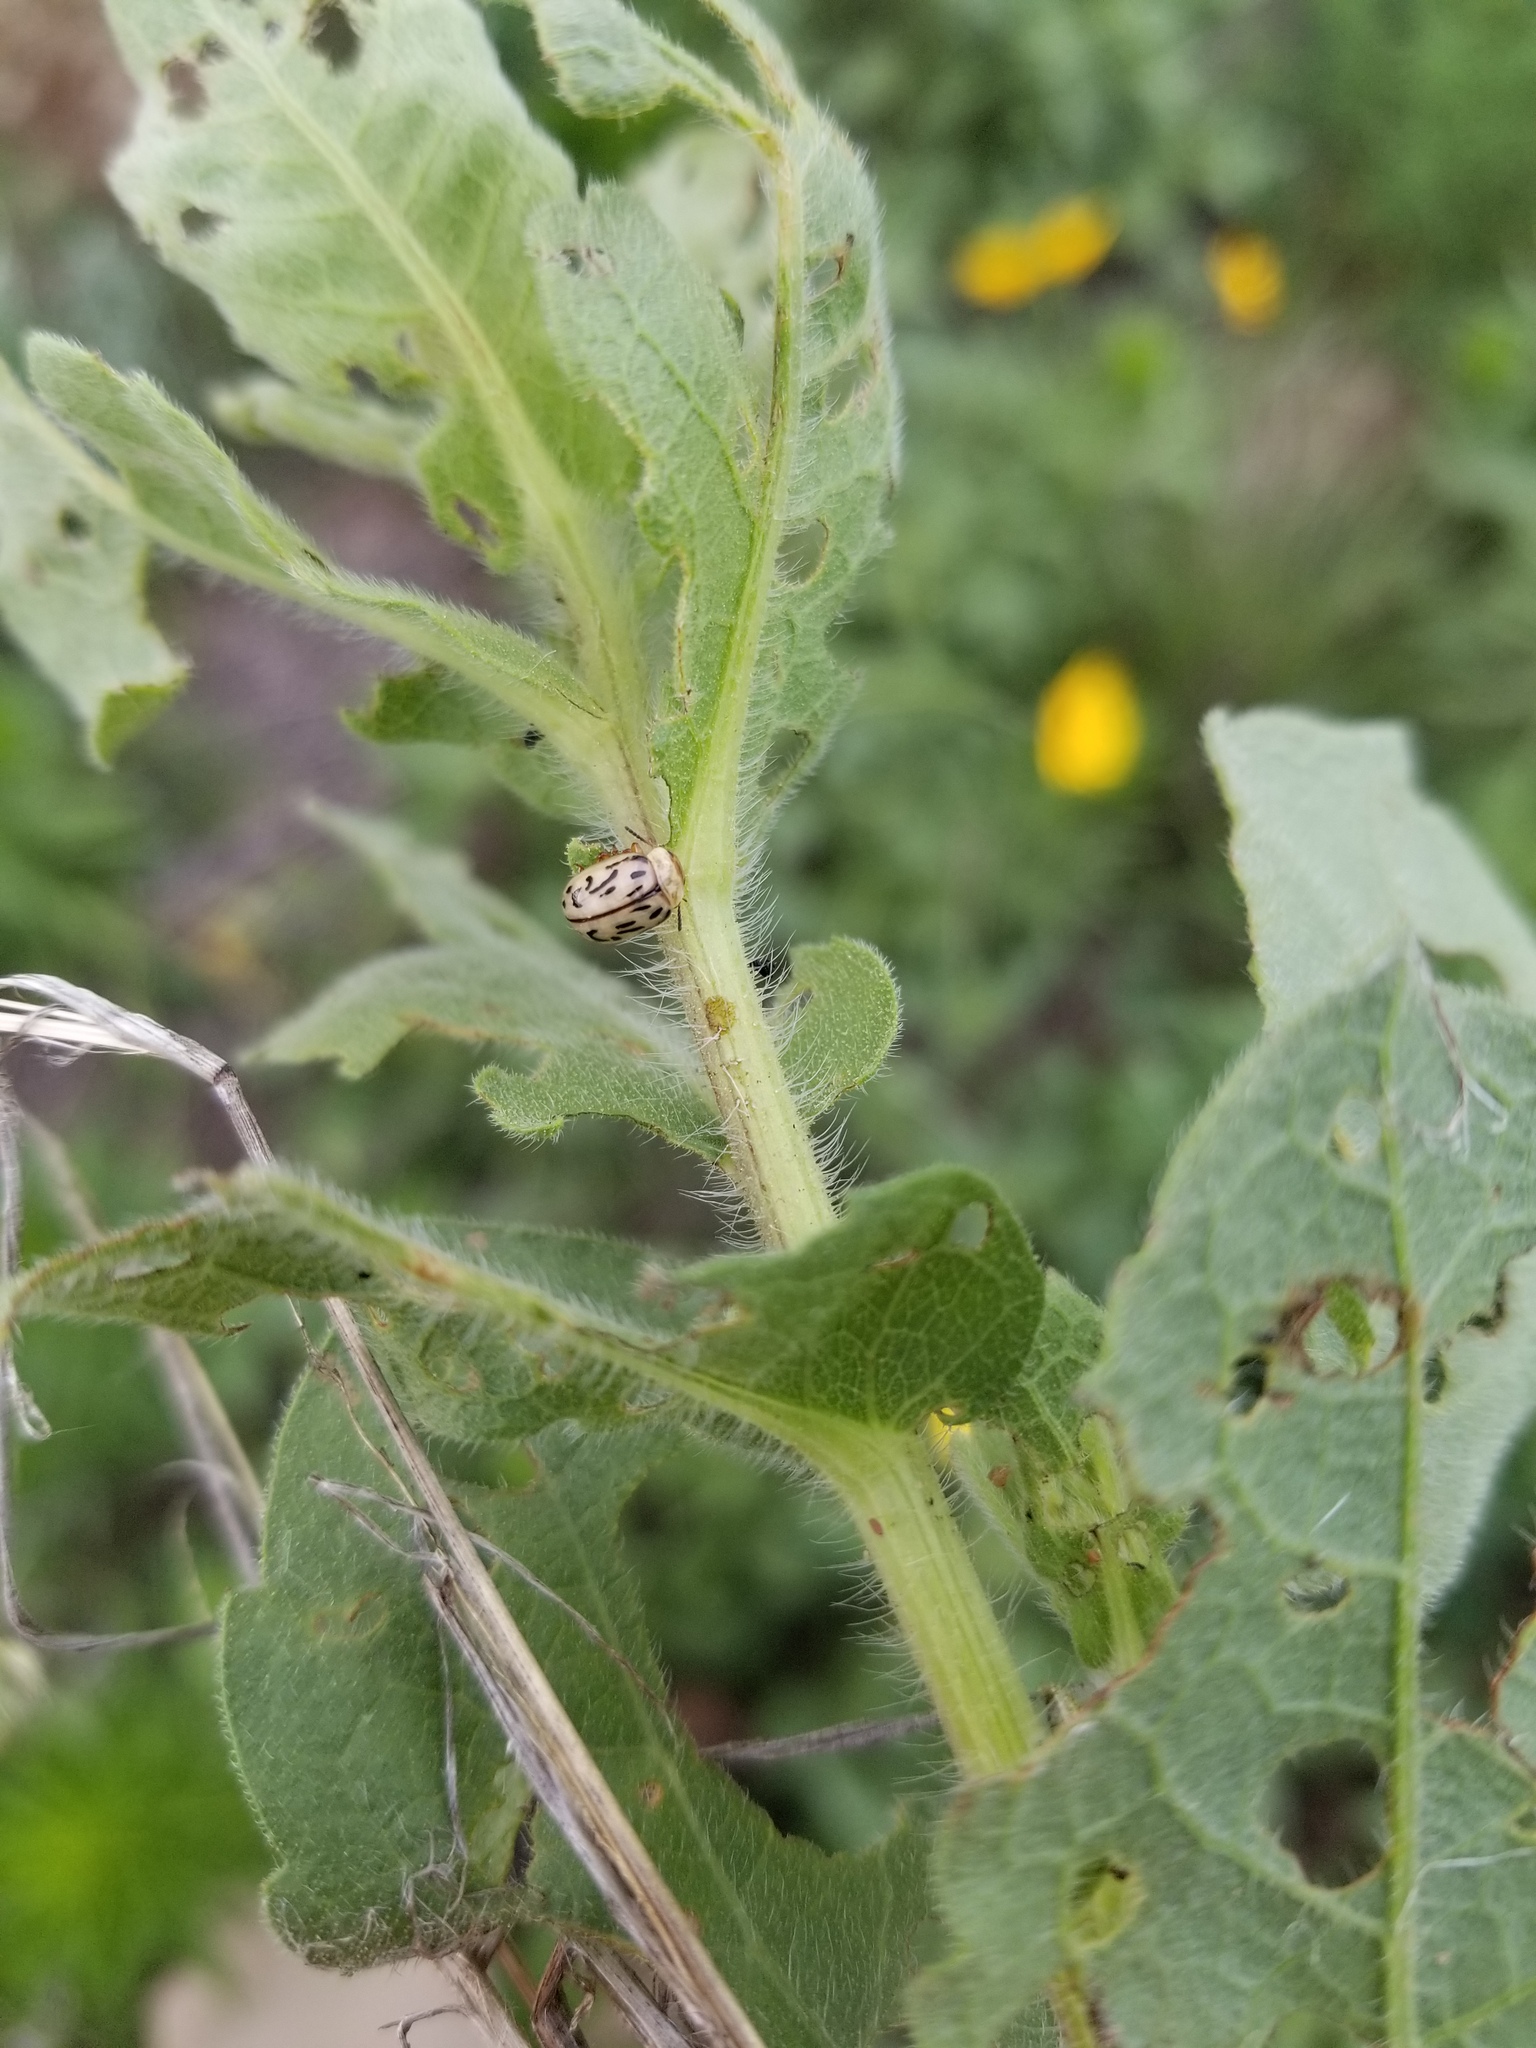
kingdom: Animalia
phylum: Arthropoda
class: Insecta
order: Coleoptera
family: Chrysomelidae
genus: Calligrapha
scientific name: Calligrapha
